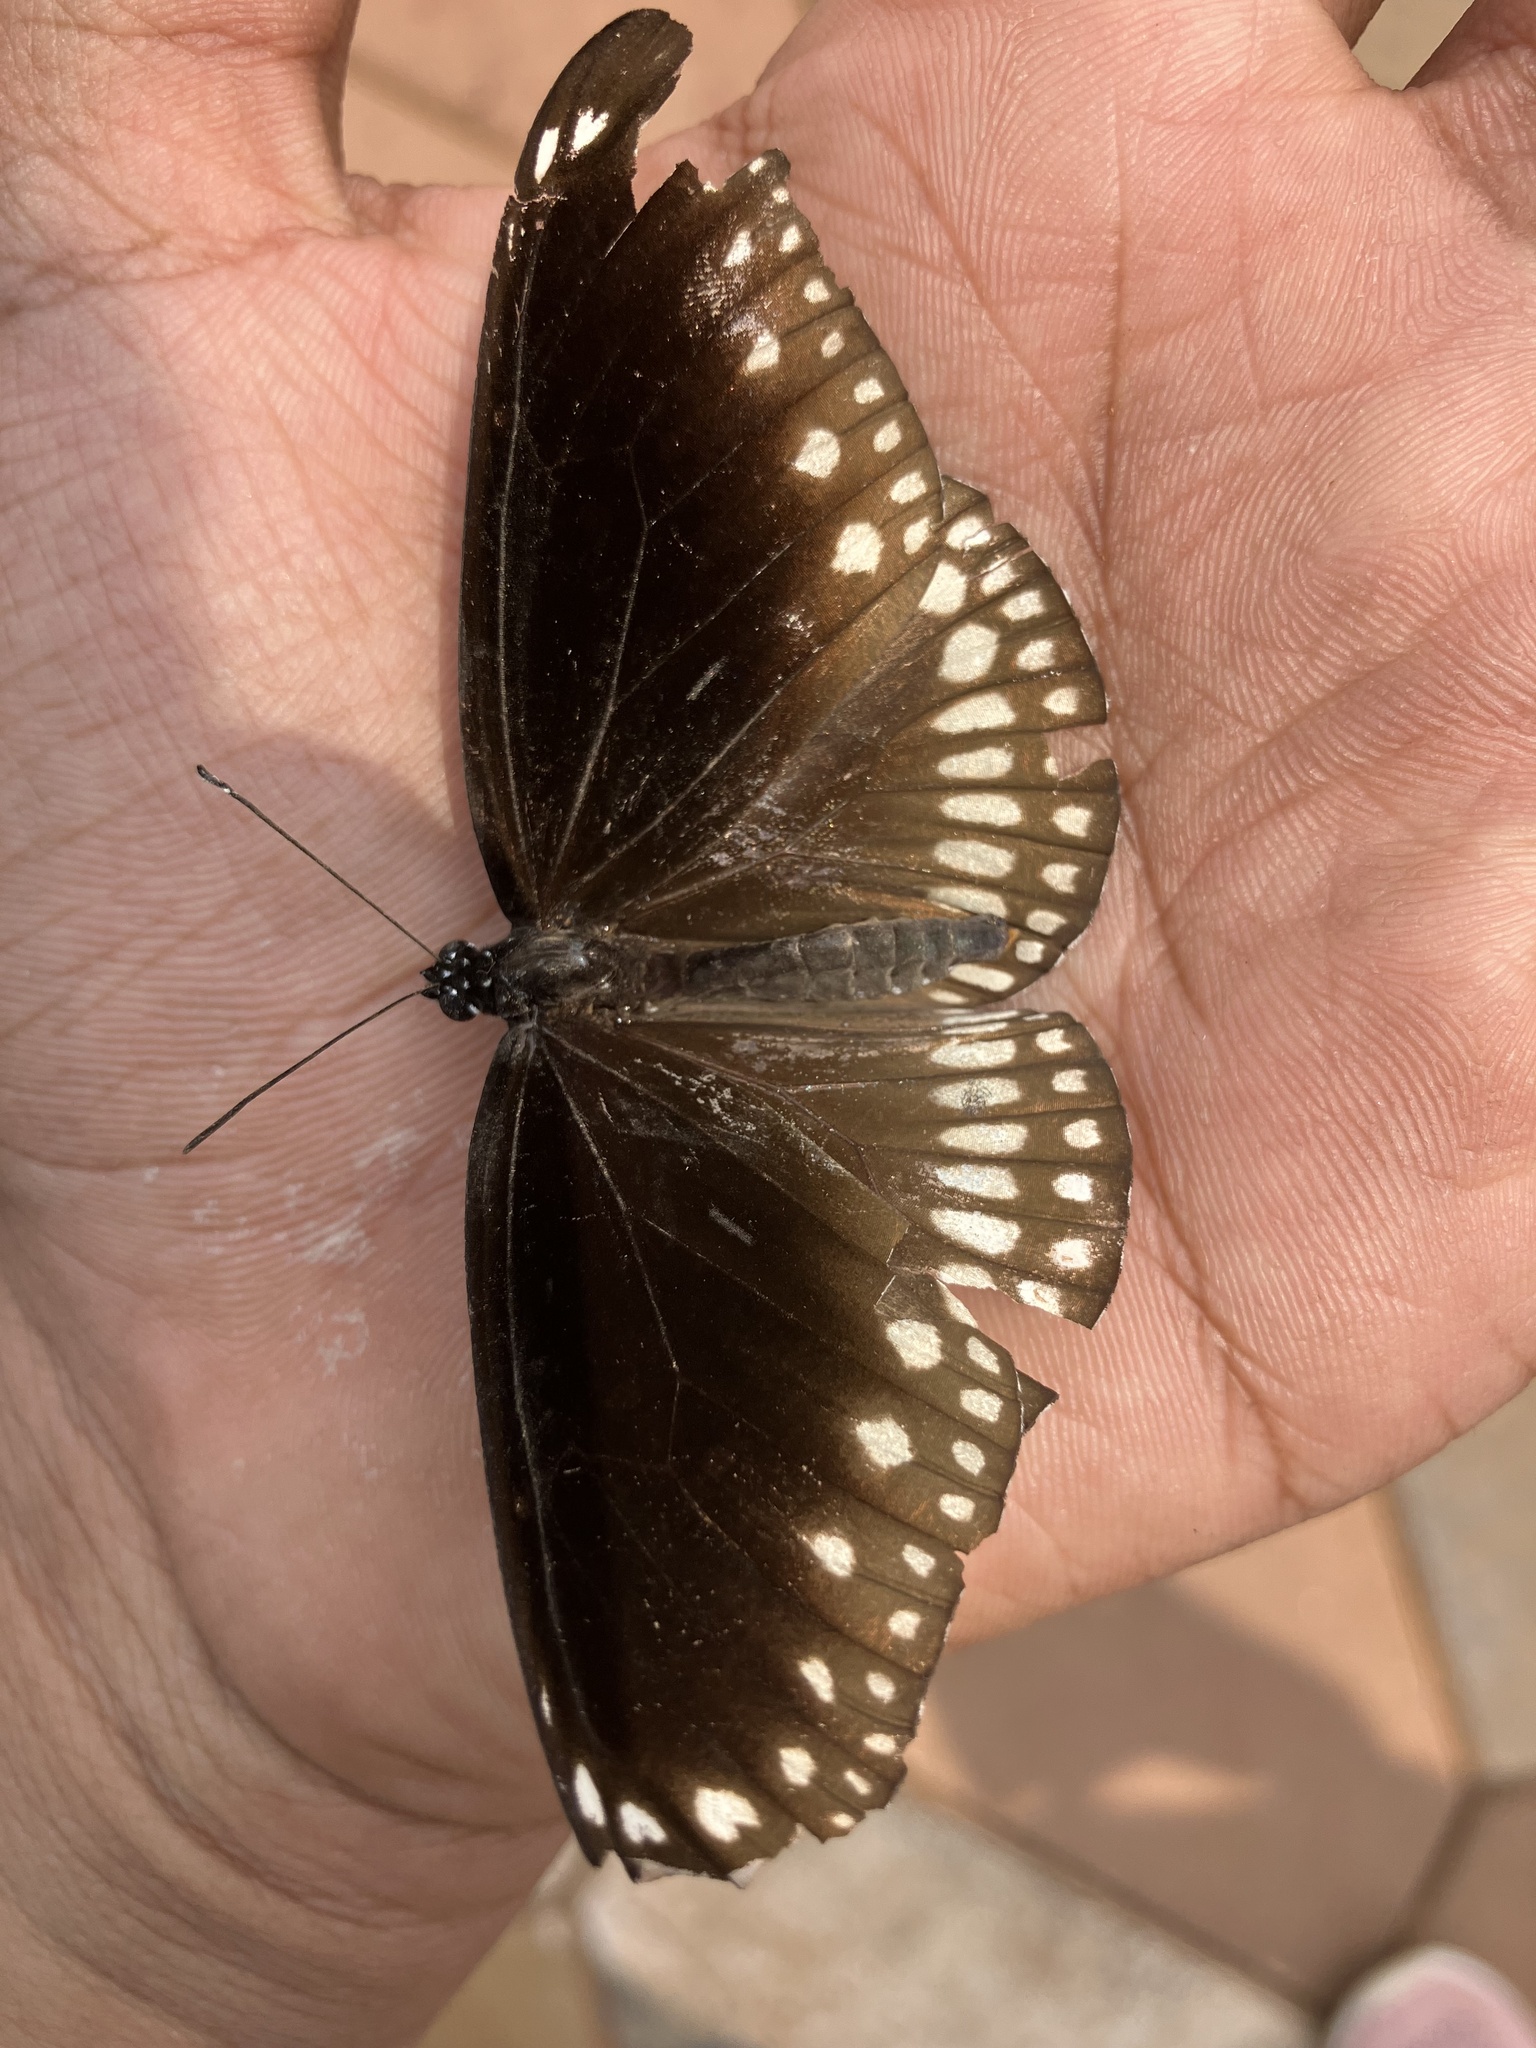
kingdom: Animalia
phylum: Arthropoda
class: Insecta
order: Lepidoptera
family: Nymphalidae
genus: Euploea
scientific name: Euploea core
